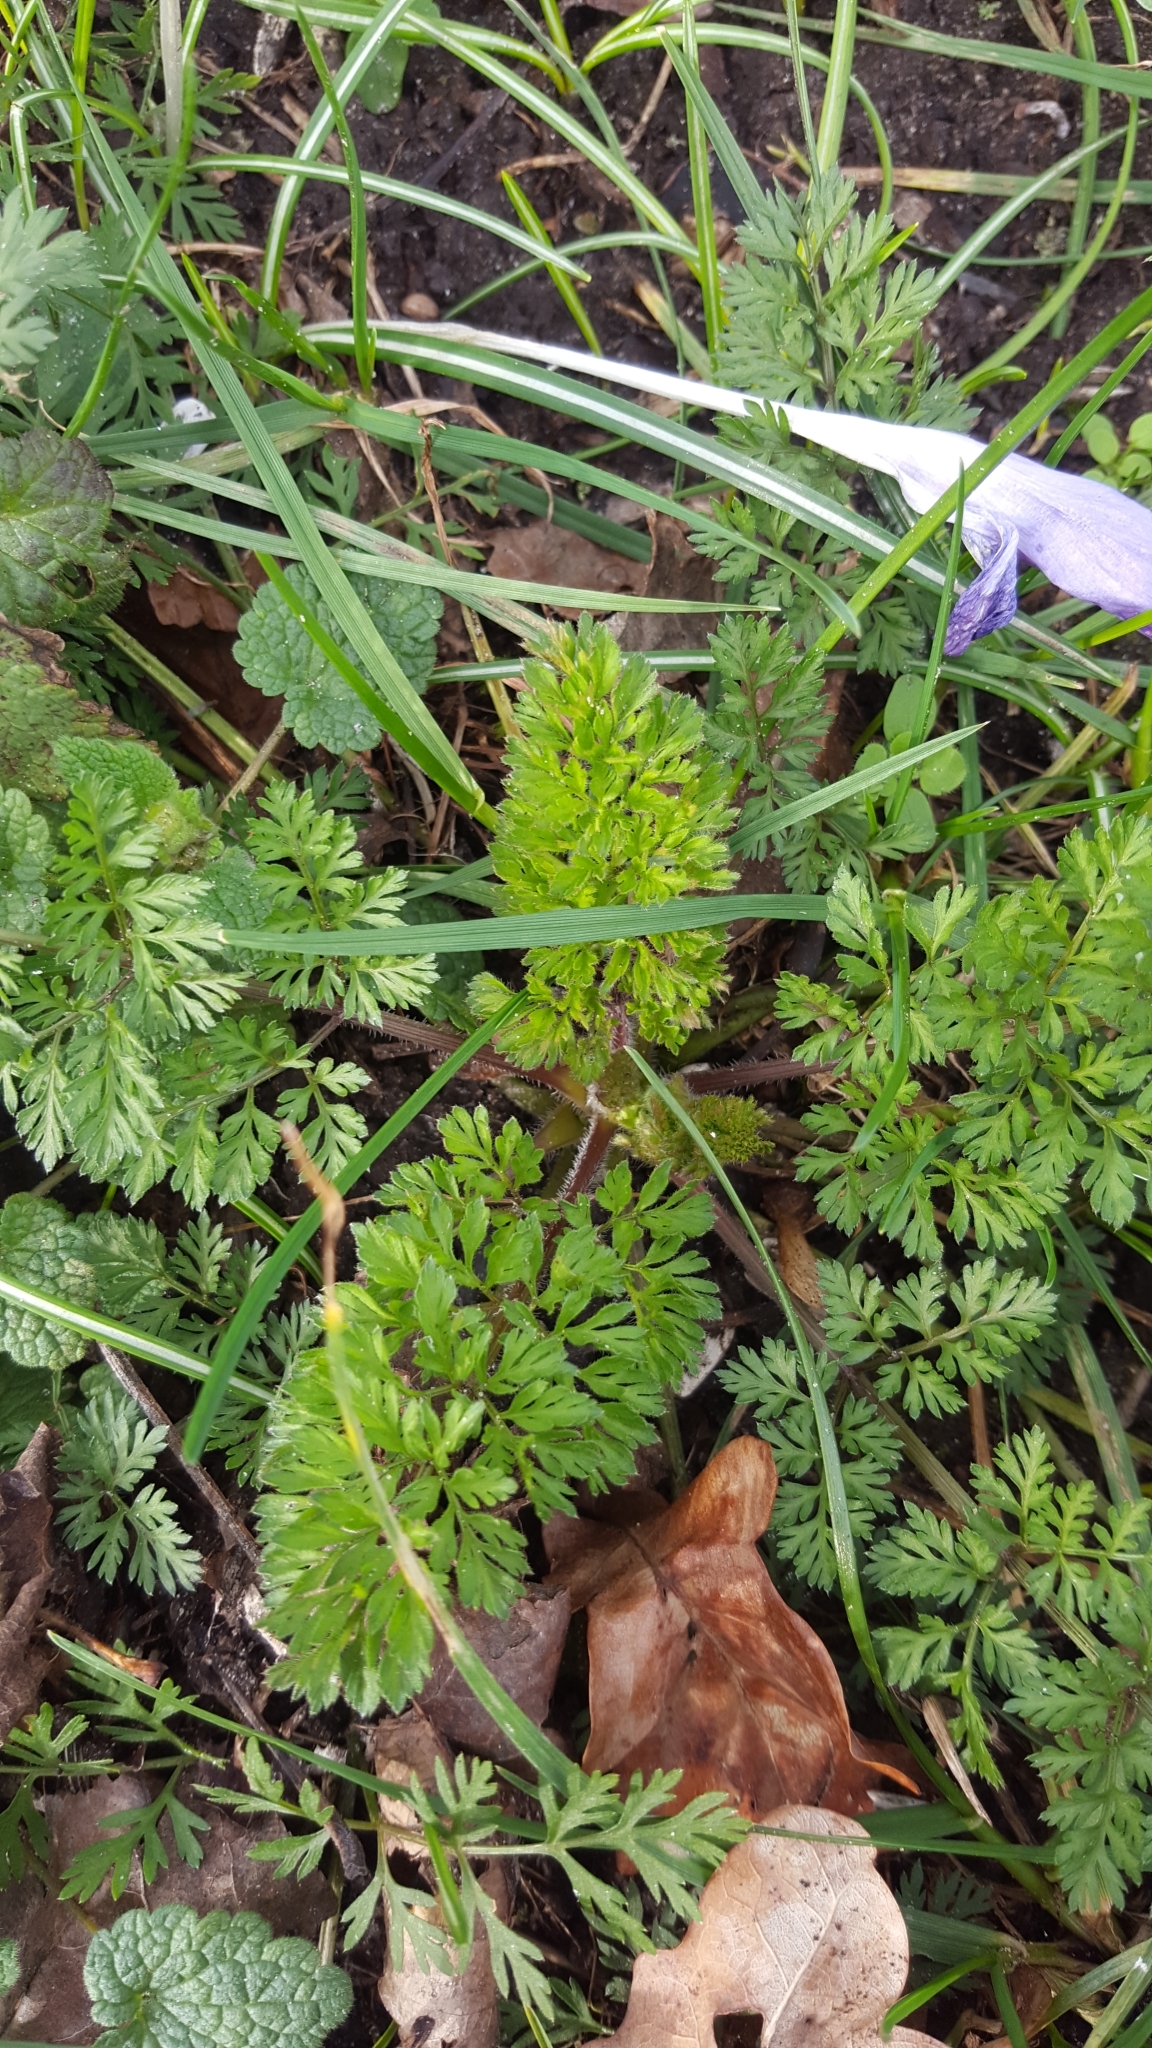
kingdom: Plantae
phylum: Tracheophyta
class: Magnoliopsida
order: Apiales
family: Apiaceae
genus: Anthriscus
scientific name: Anthriscus caucalis
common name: Bur chervil
